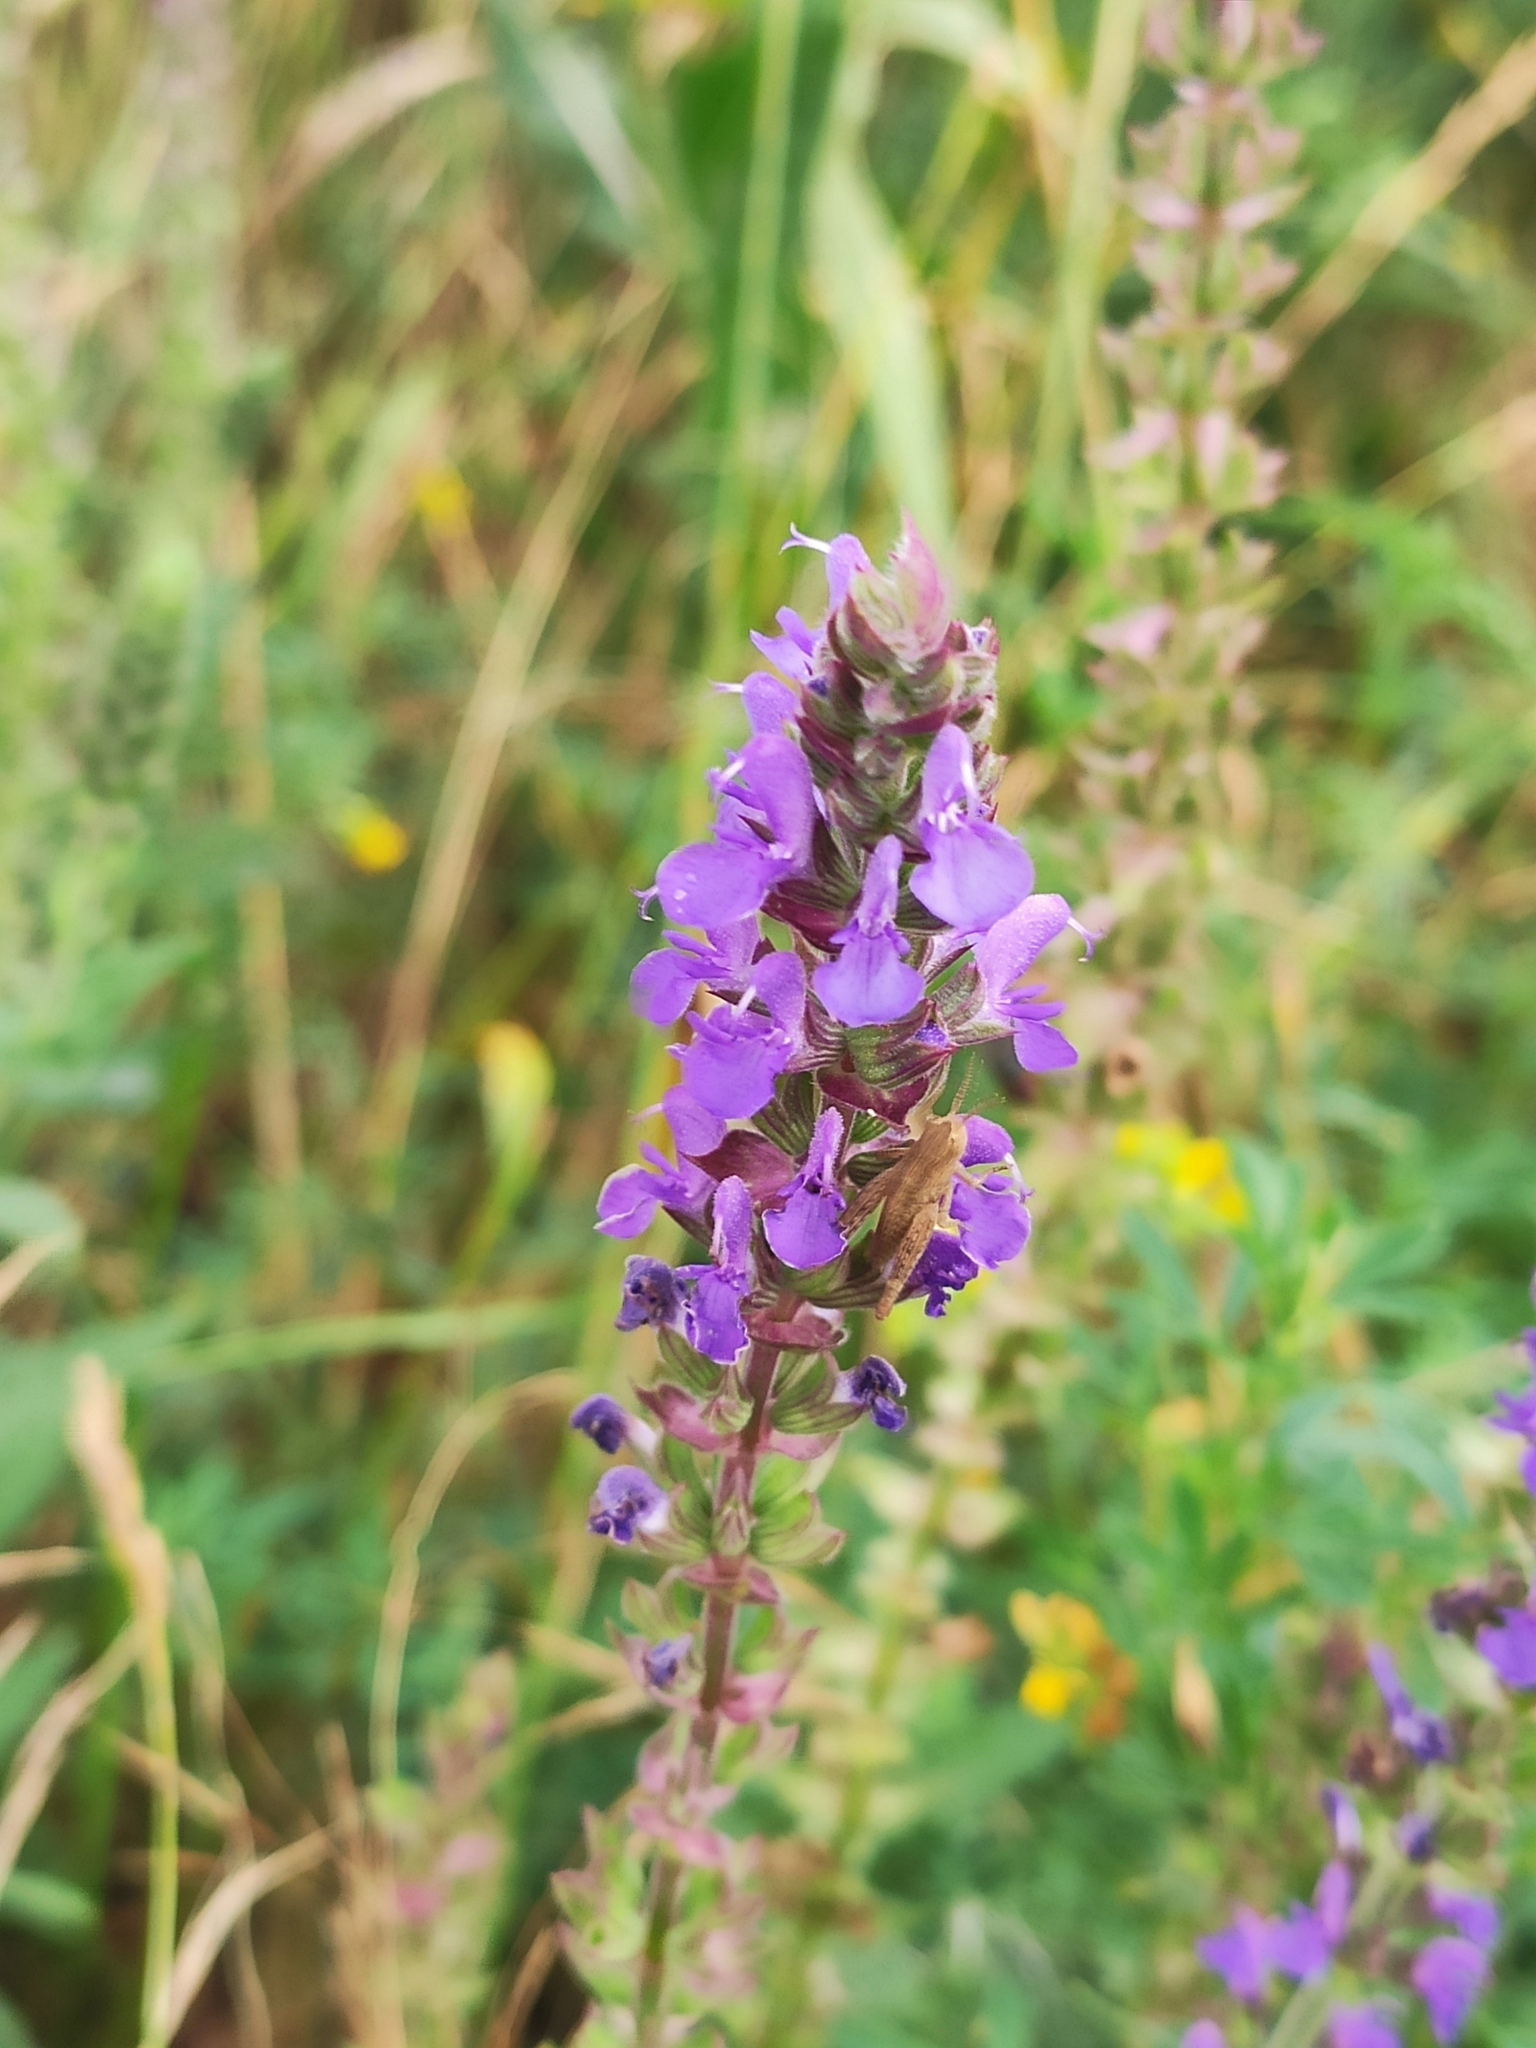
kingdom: Plantae
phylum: Tracheophyta
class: Magnoliopsida
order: Lamiales
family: Lamiaceae
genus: Salvia
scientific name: Salvia nemorosa
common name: Balkan clary
